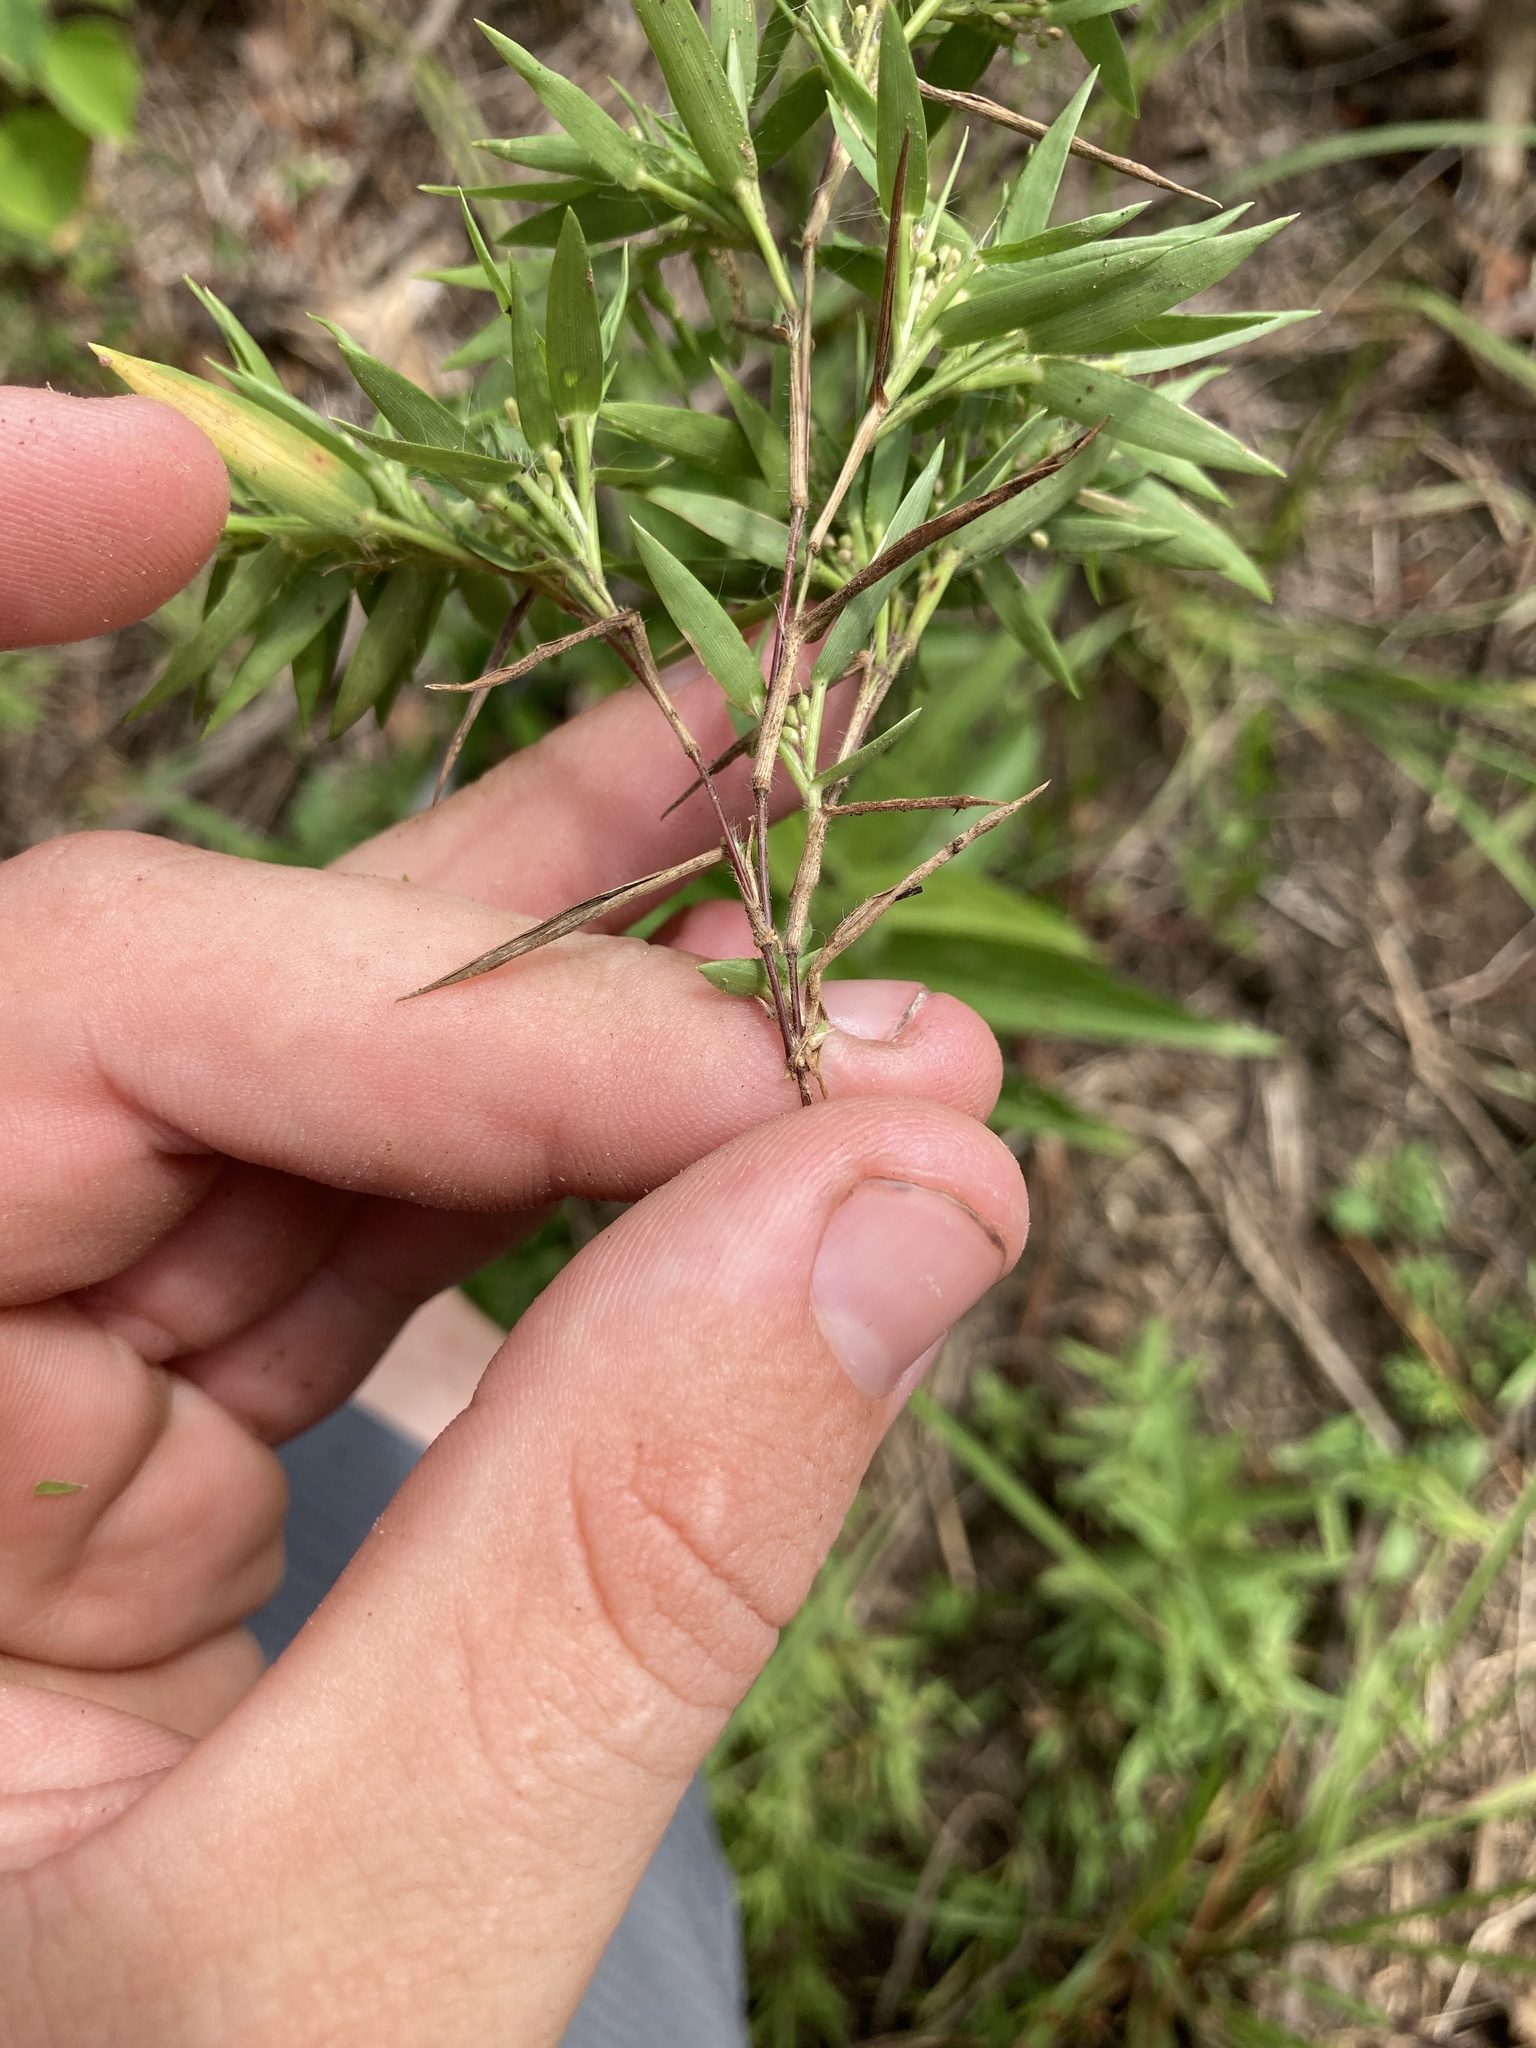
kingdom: Plantae
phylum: Tracheophyta
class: Liliopsida
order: Poales
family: Poaceae
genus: Dichanthelium
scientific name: Dichanthelium acuminatum
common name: Hairy panic grass
